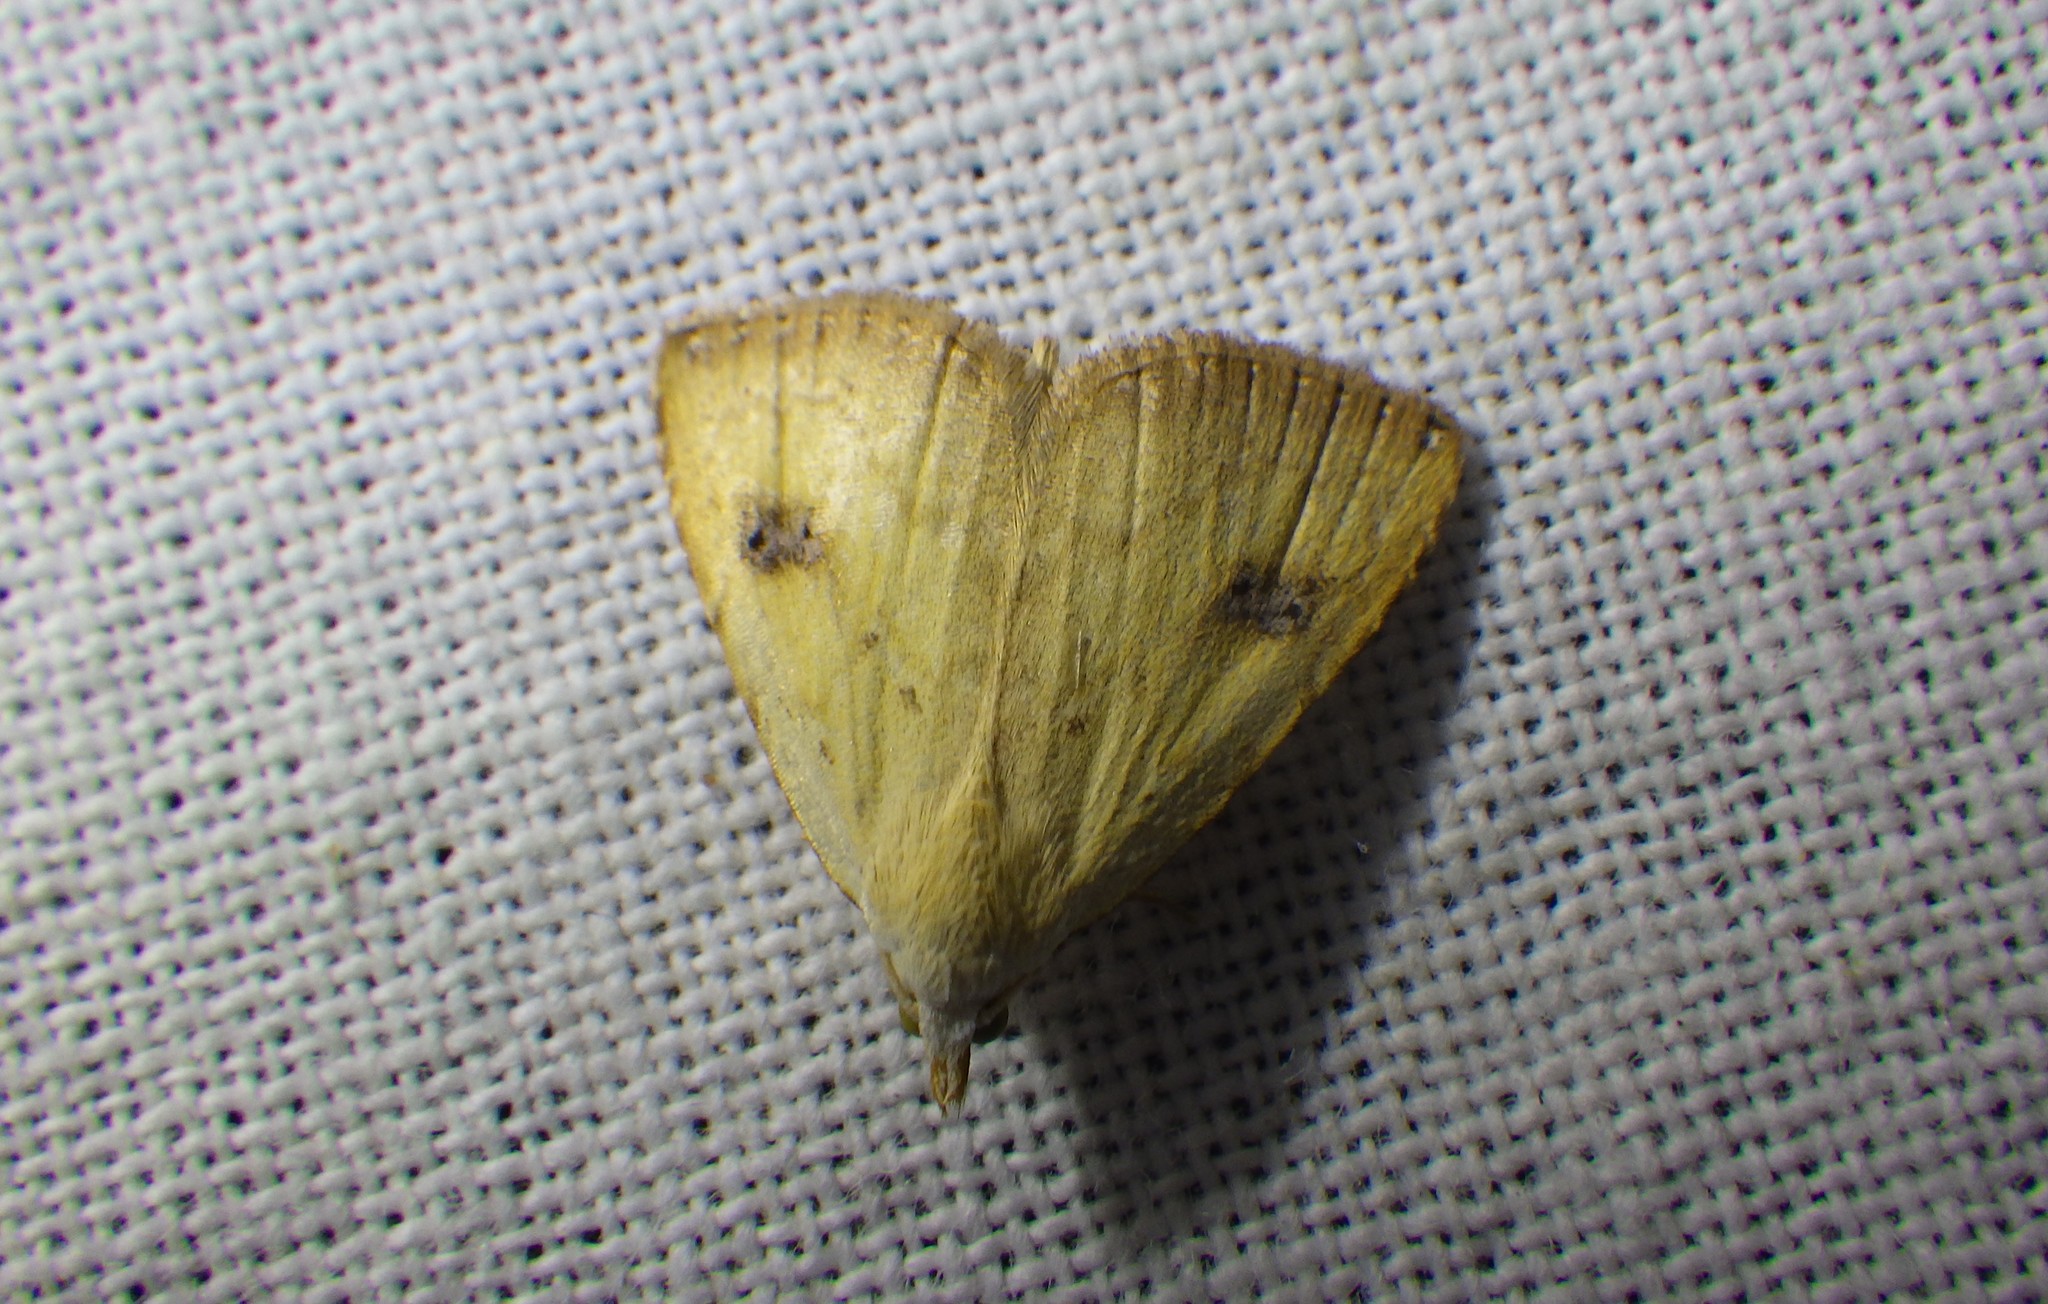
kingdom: Animalia
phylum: Arthropoda
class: Insecta
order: Lepidoptera
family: Erebidae
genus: Rivula
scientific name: Rivula sericealis
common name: Straw dot
